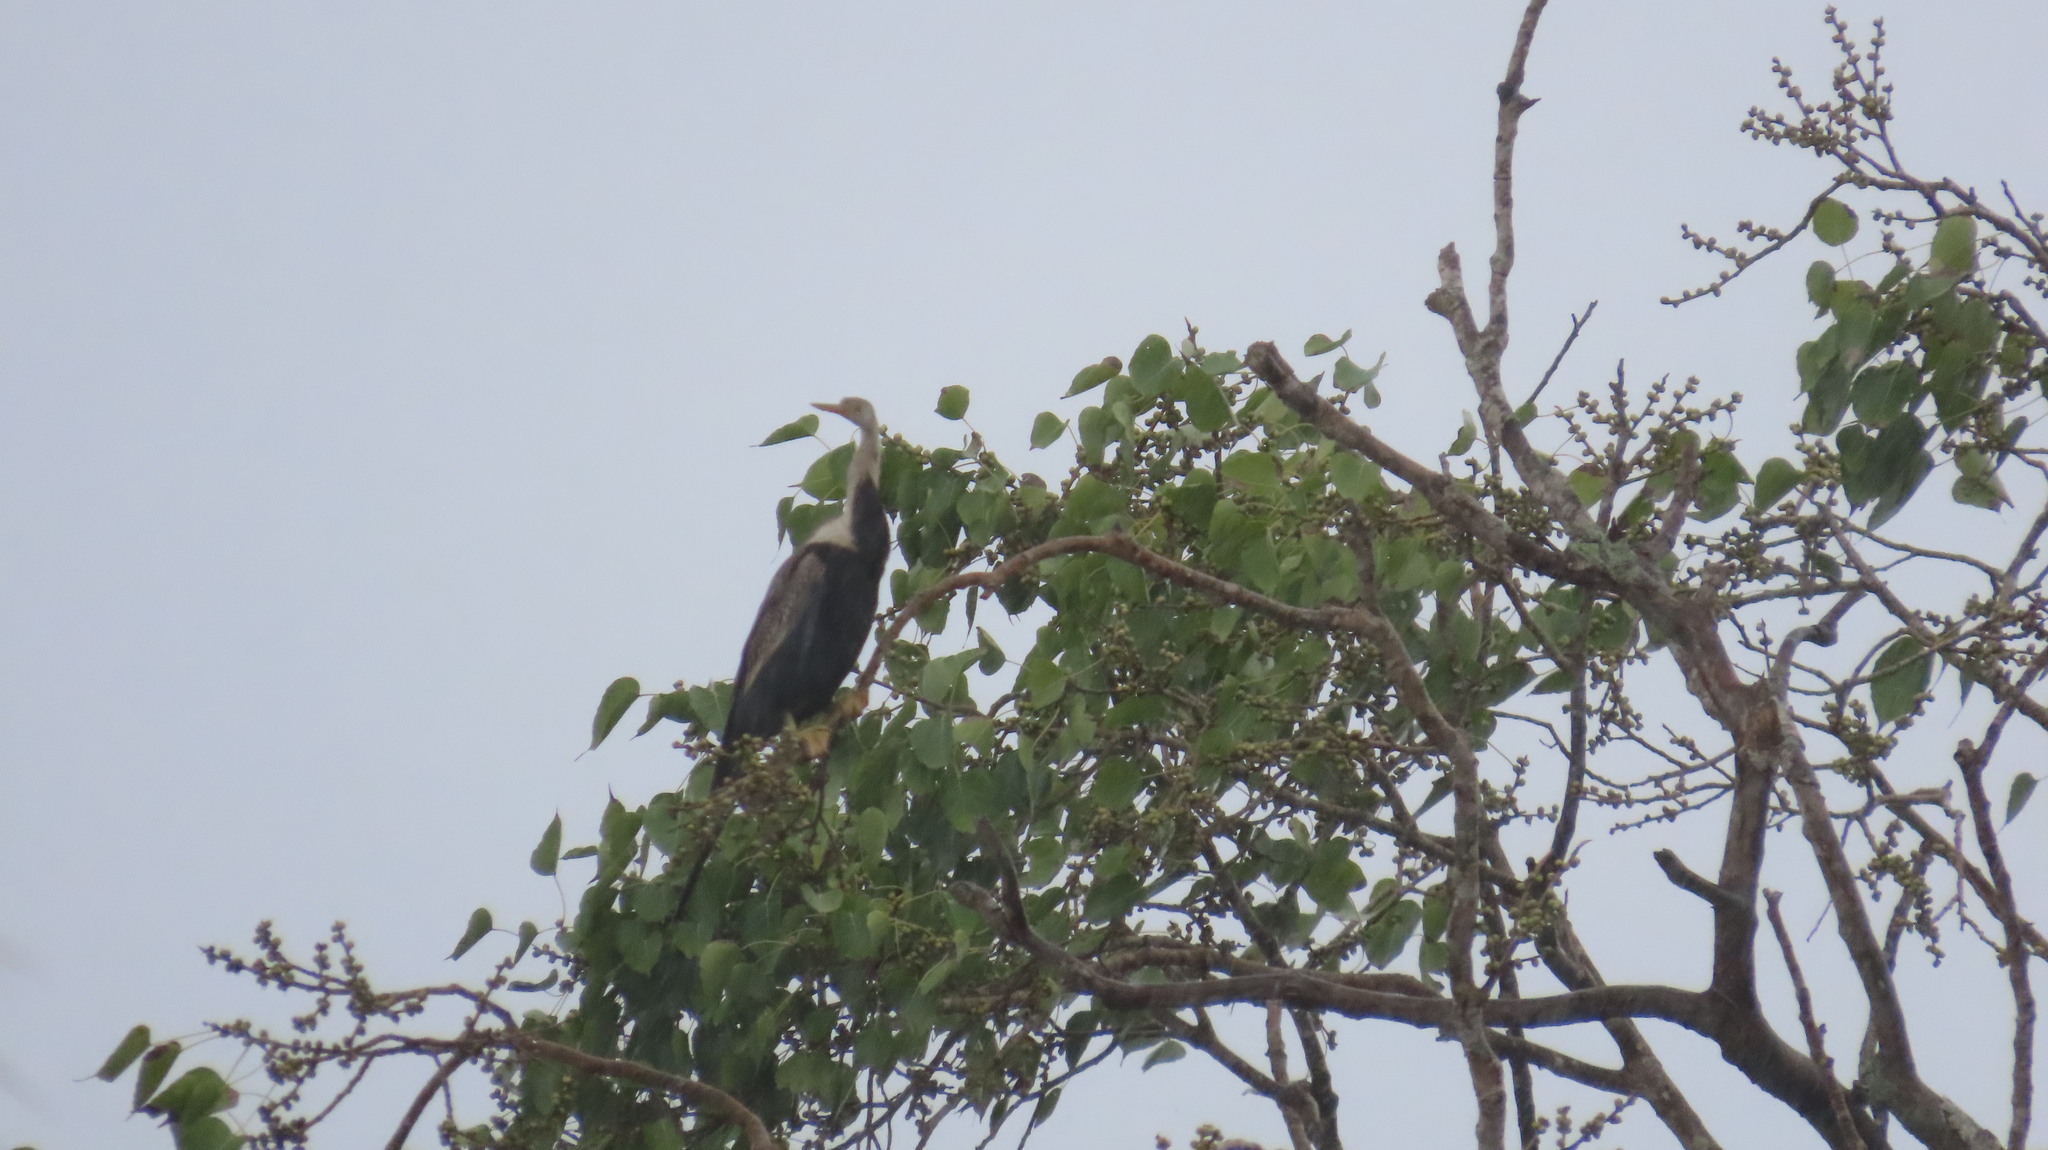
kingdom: Animalia
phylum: Chordata
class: Aves
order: Suliformes
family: Anhingidae
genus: Anhinga
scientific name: Anhinga melanogaster
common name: Oriental darter
